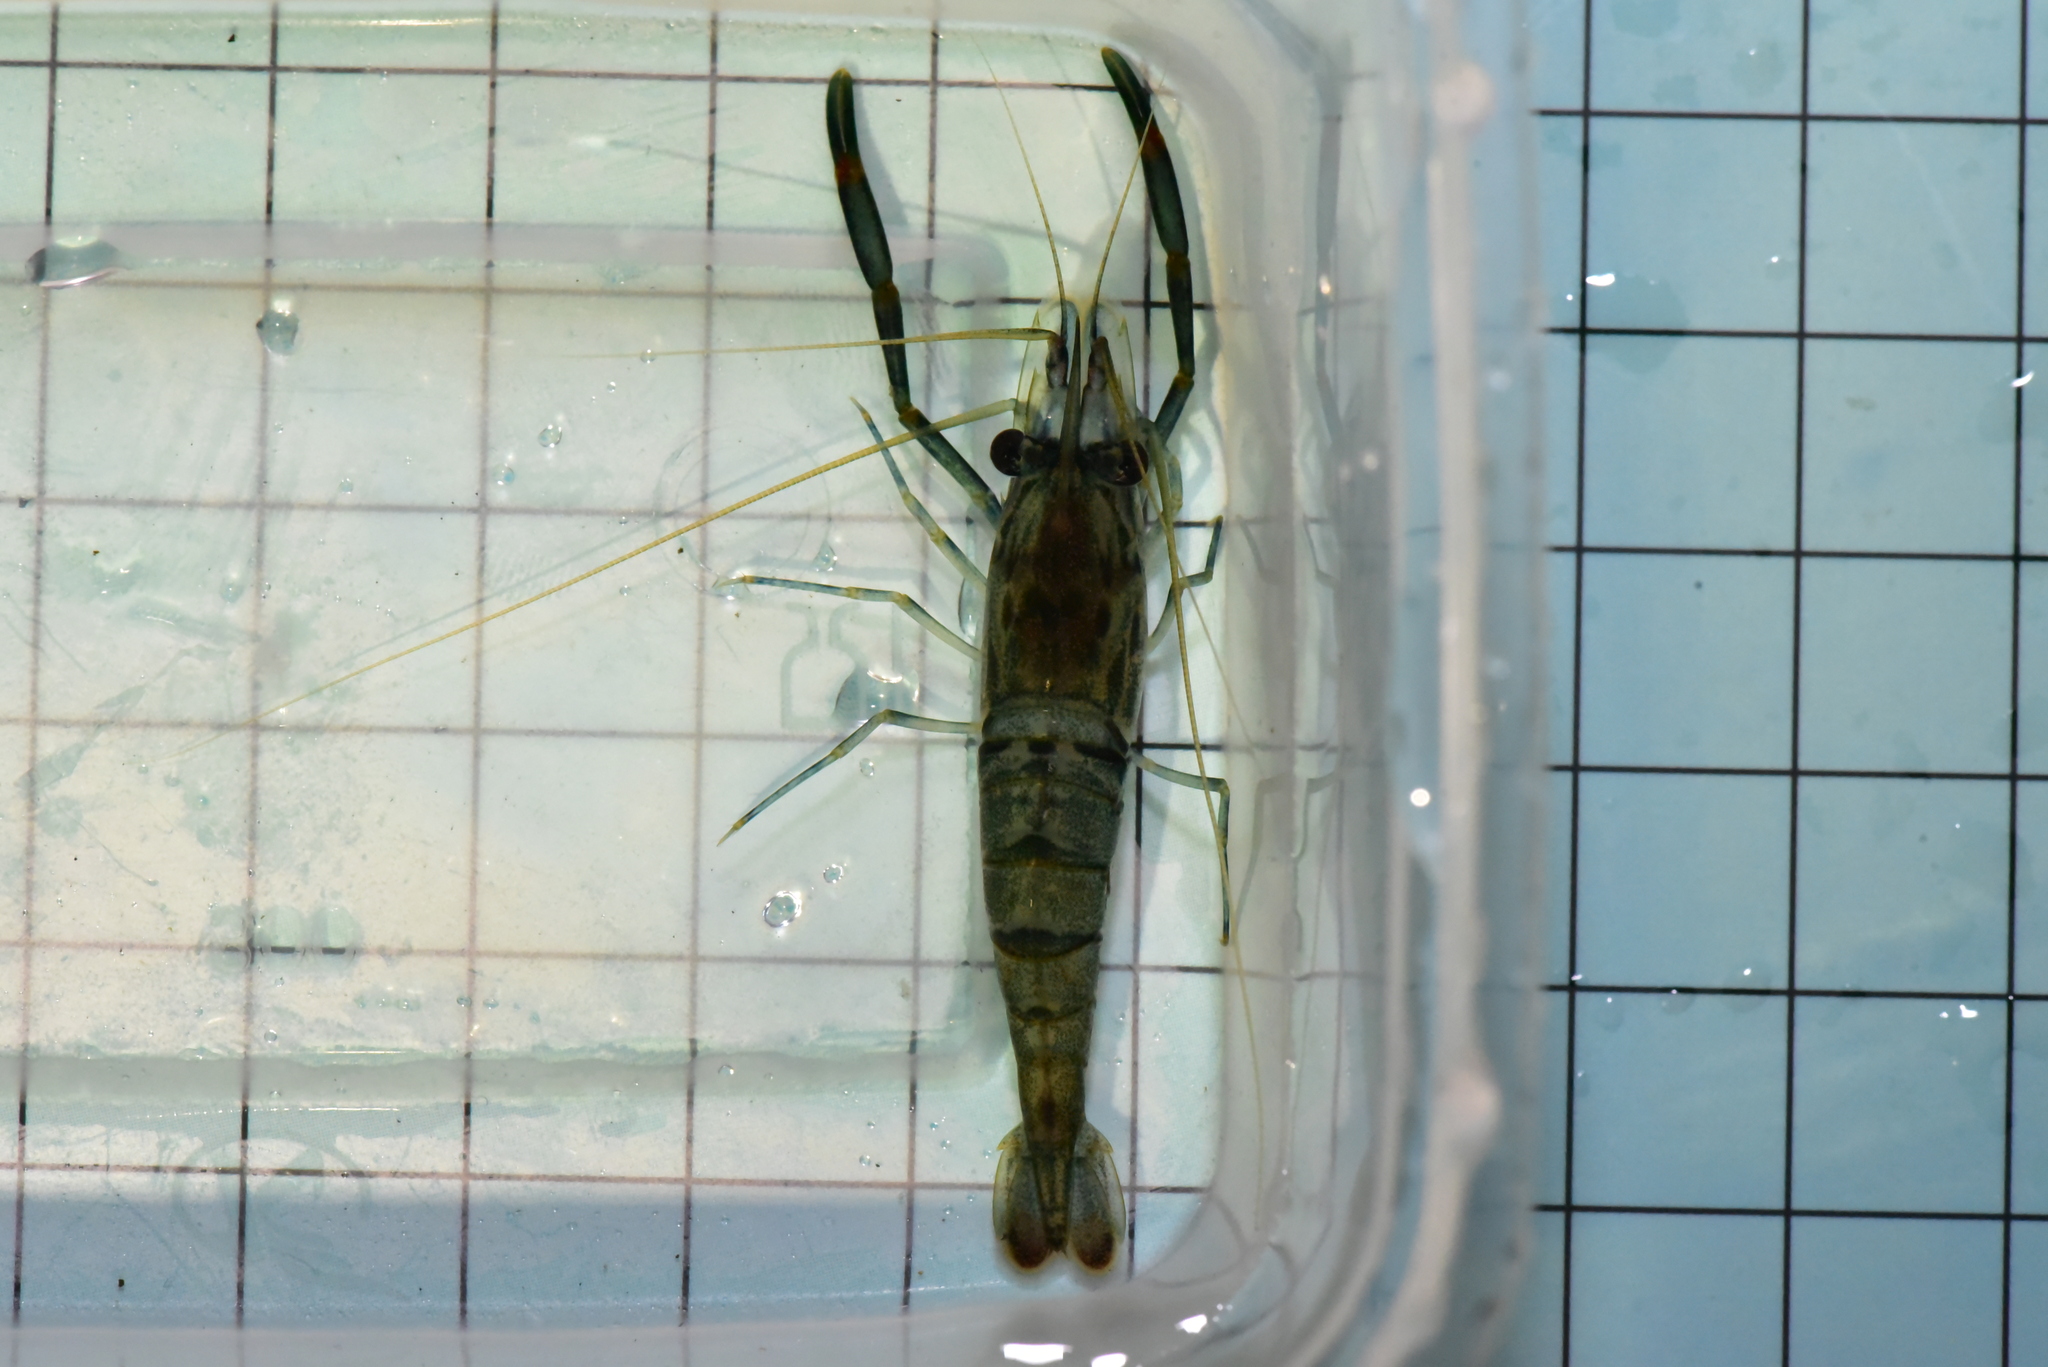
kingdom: Animalia
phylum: Arthropoda
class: Malacostraca
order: Decapoda
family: Palaemonidae
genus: Macrobrachium
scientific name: Macrobrachium asperulum
